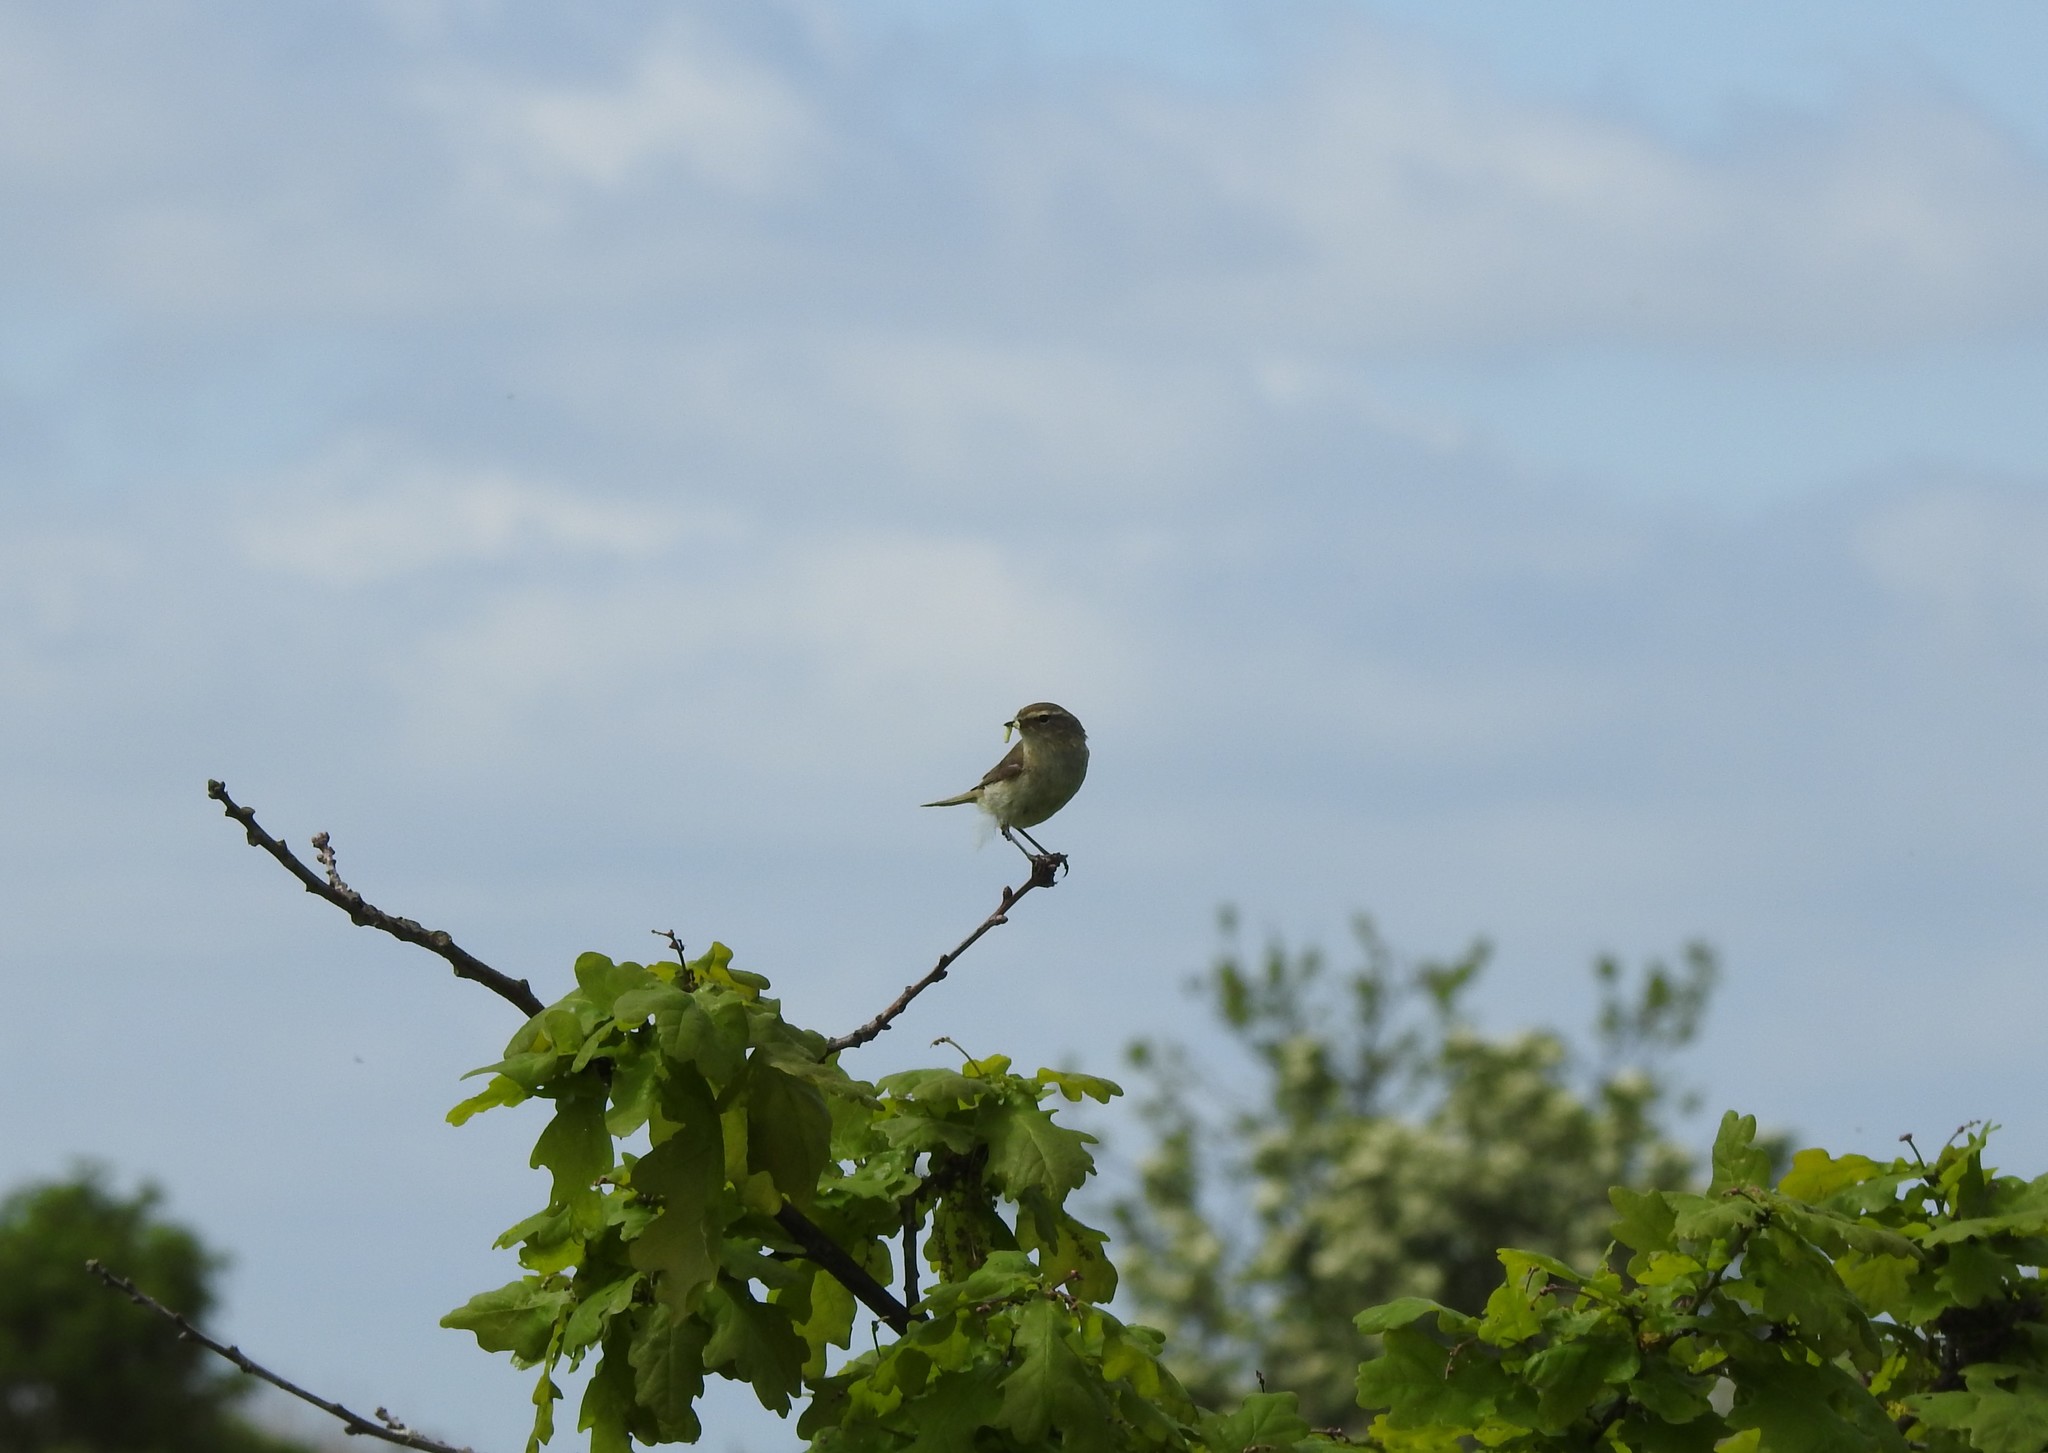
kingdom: Animalia
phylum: Chordata
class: Aves
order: Passeriformes
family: Phylloscopidae
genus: Phylloscopus
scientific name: Phylloscopus collybita
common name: Common chiffchaff
